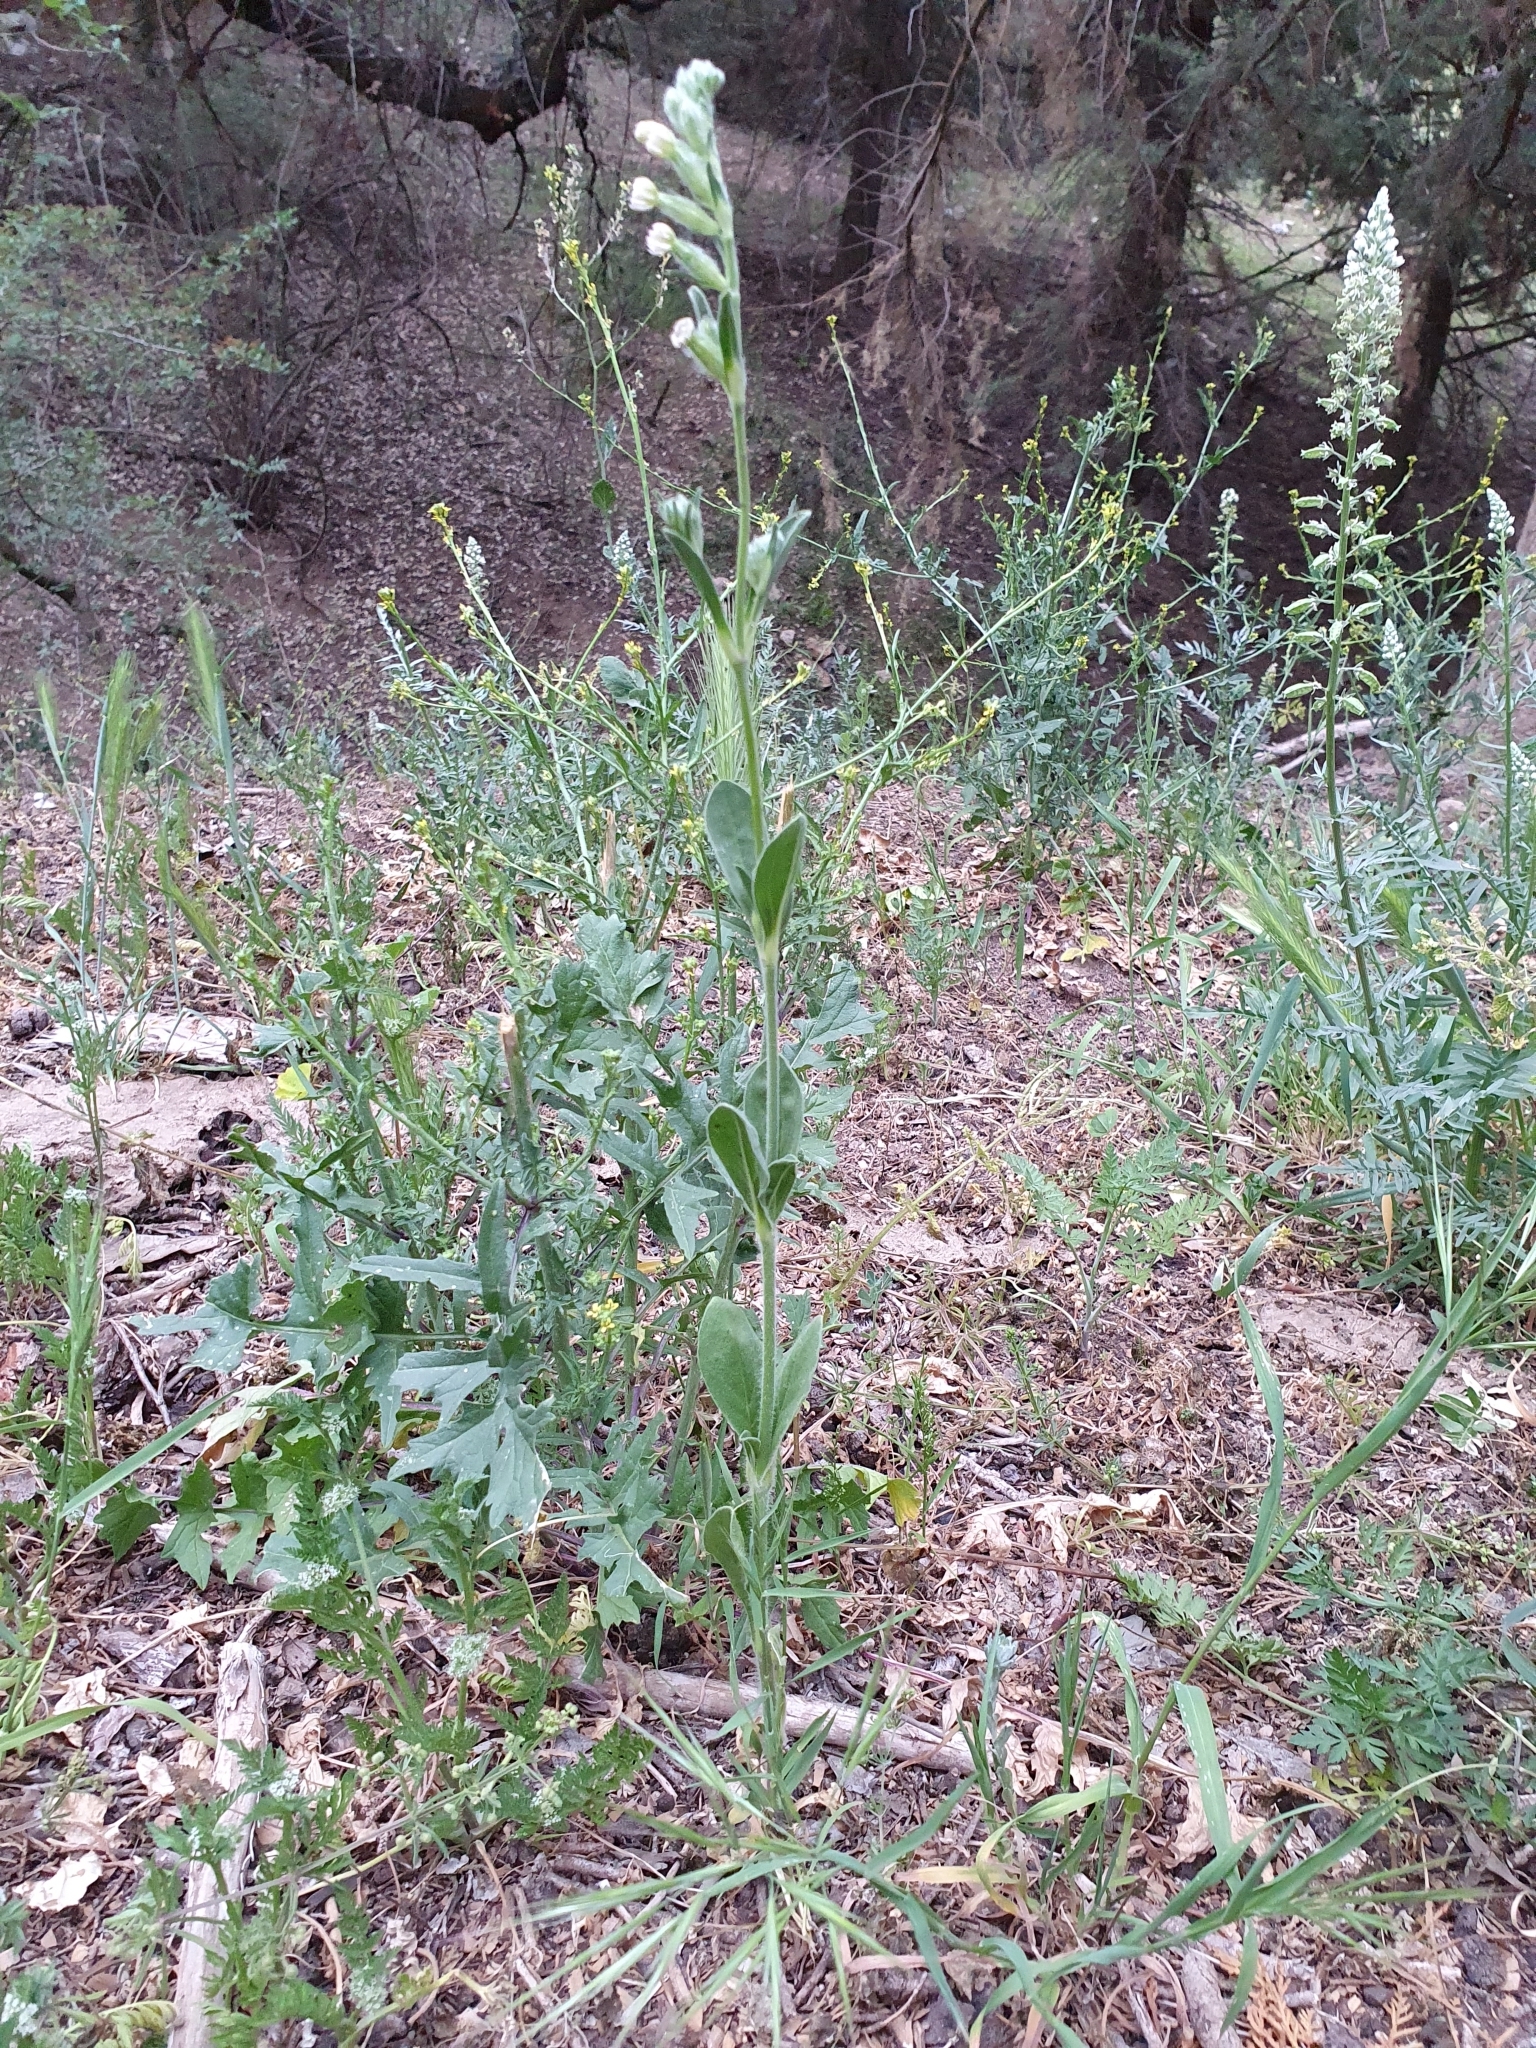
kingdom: Plantae
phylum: Tracheophyta
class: Magnoliopsida
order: Caryophyllales
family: Caryophyllaceae
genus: Silene
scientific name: Silene cirtensis
